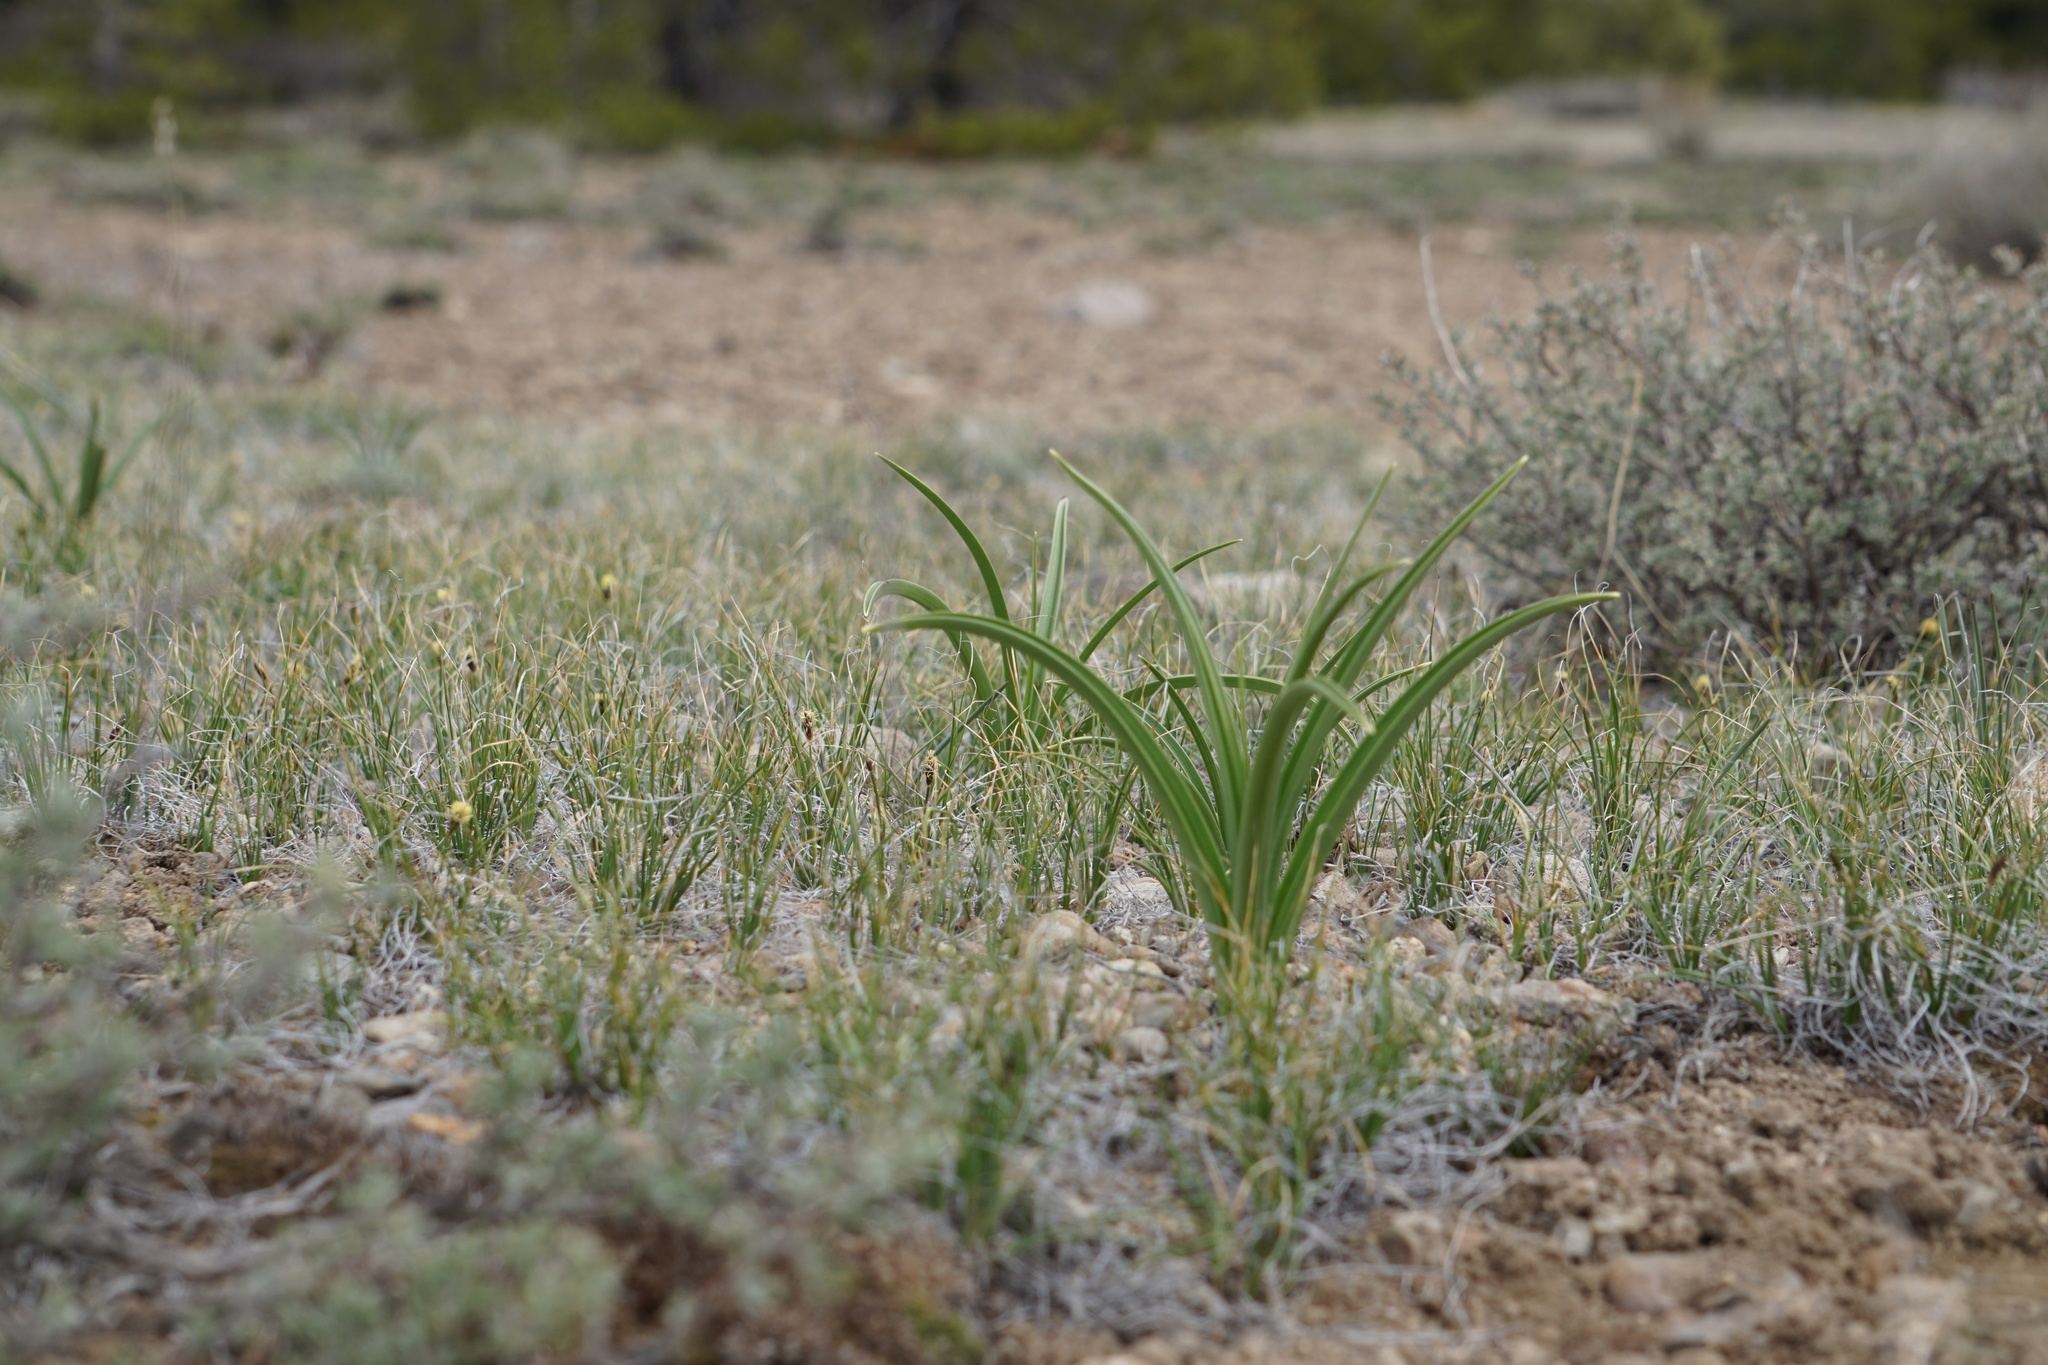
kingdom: Plantae
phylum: Tracheophyta
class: Liliopsida
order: Liliales
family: Melanthiaceae
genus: Toxicoscordion
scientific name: Toxicoscordion paniculatum
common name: Foothill death camas
